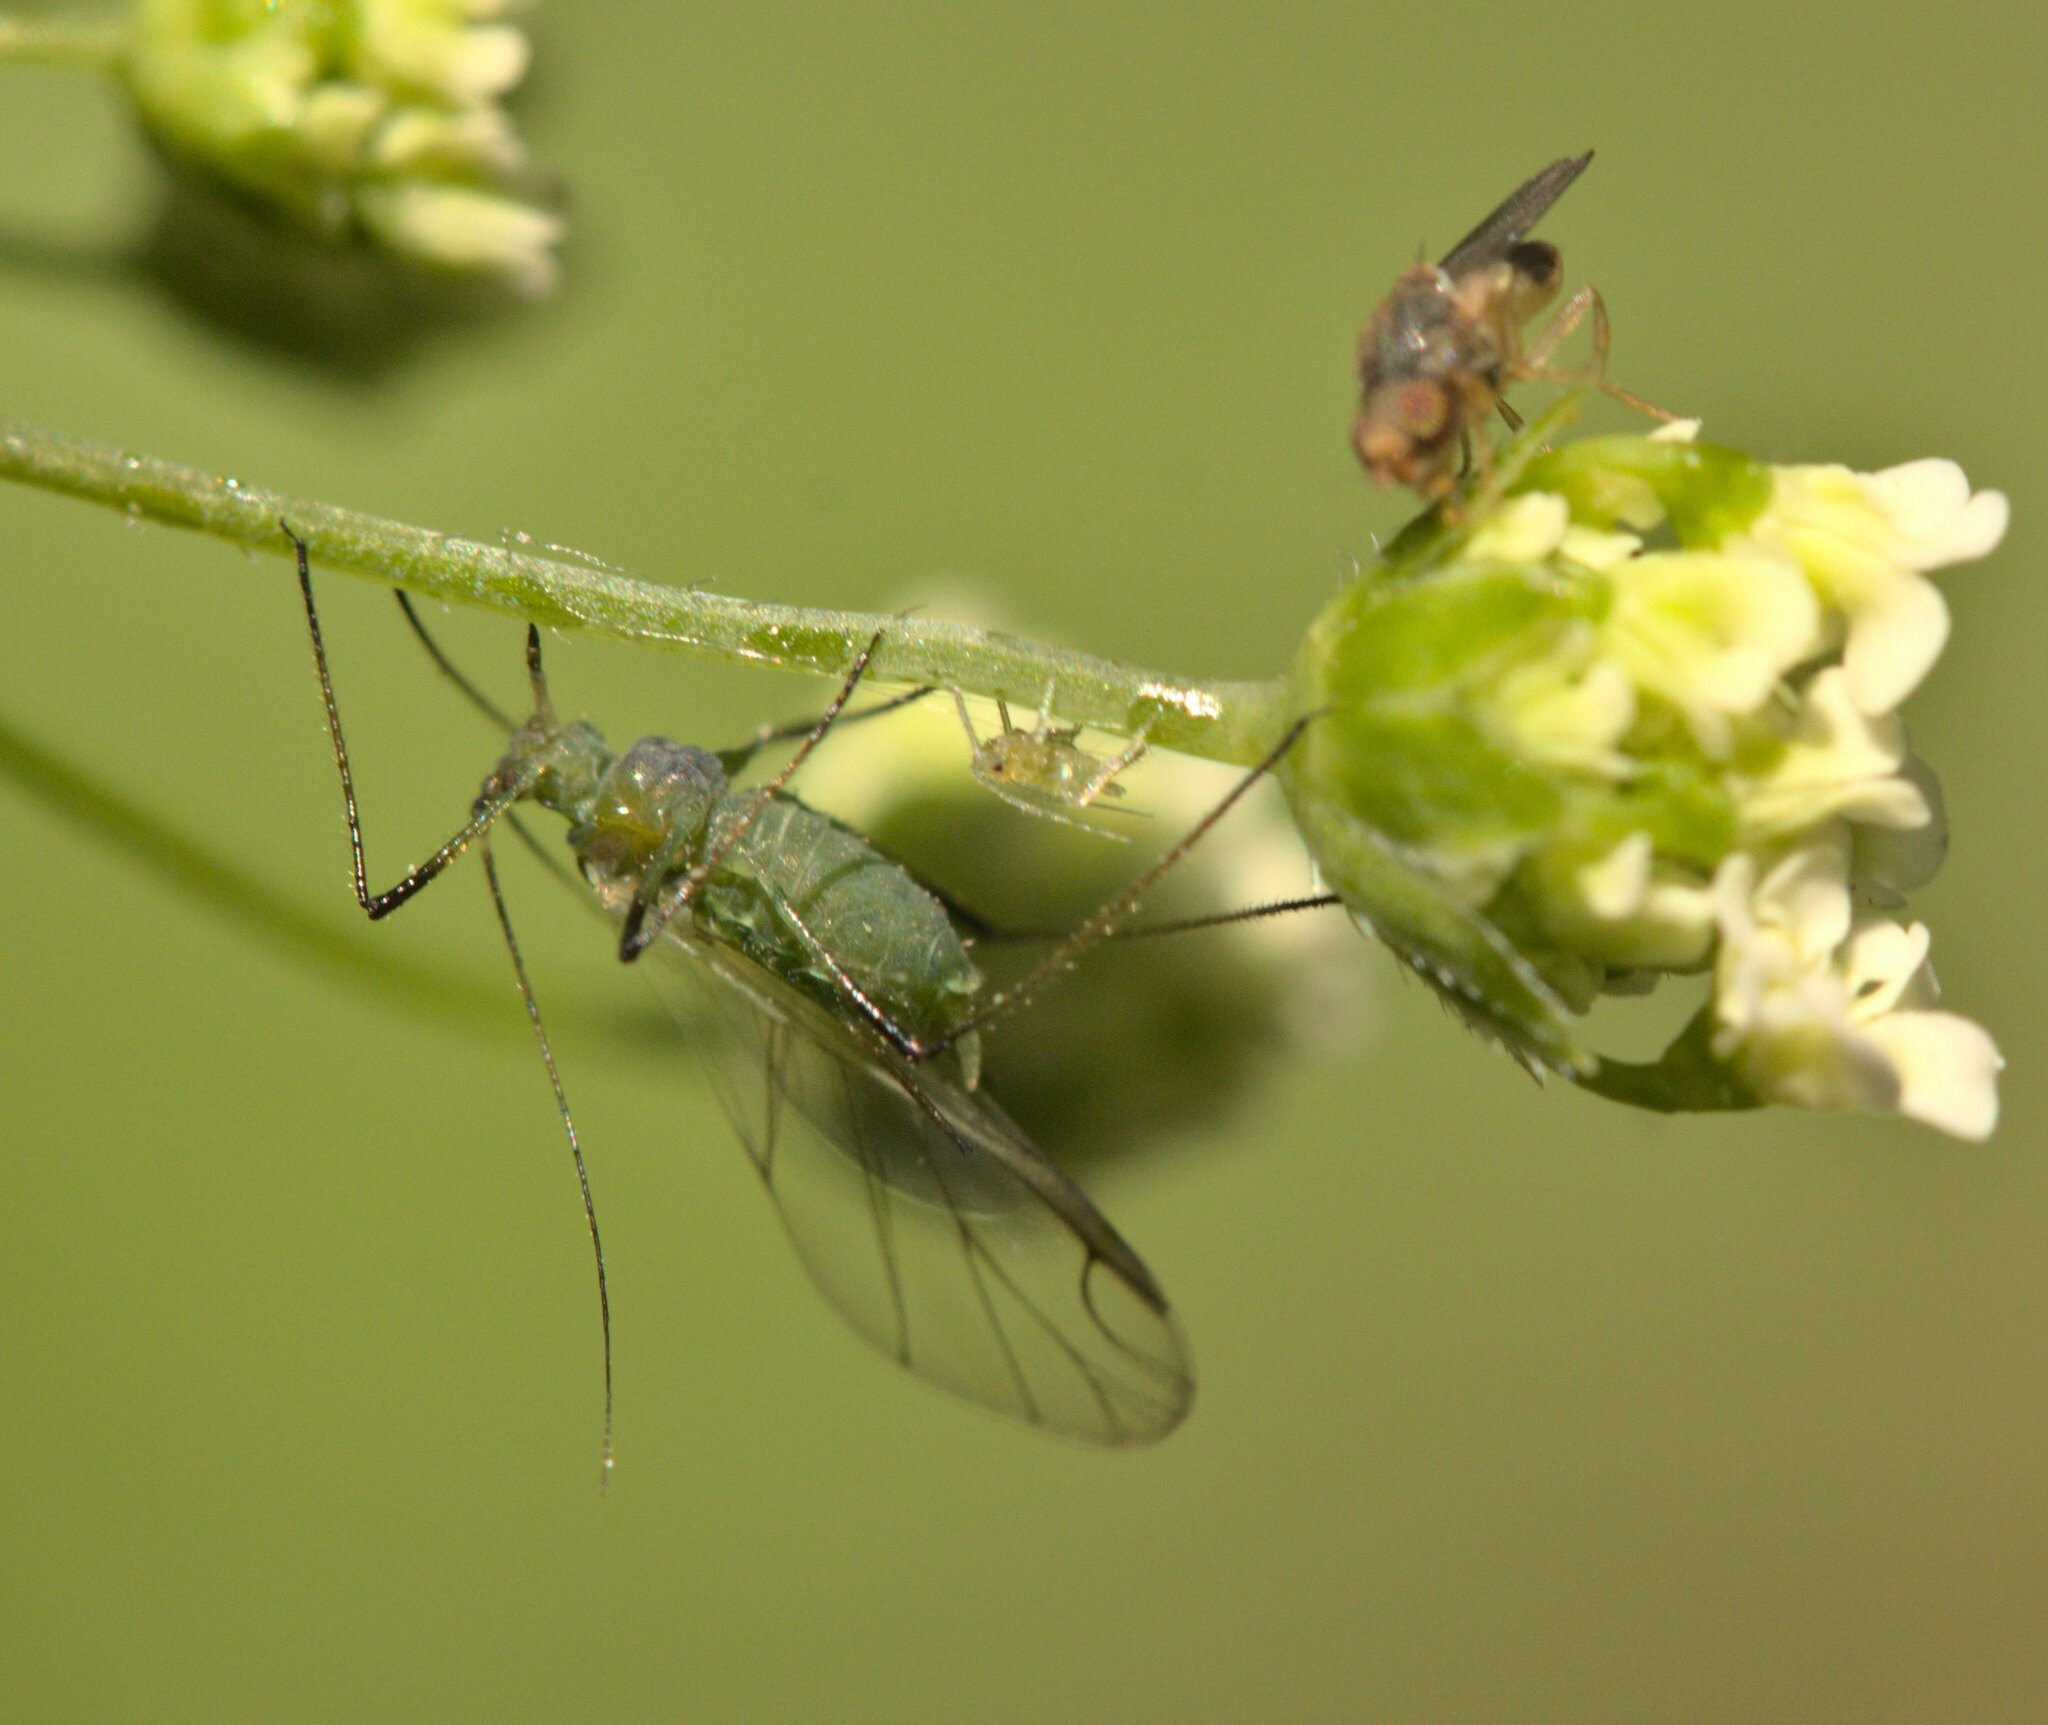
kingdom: Animalia
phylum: Arthropoda
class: Insecta
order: Hemiptera
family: Aphididae
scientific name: Aphididae
